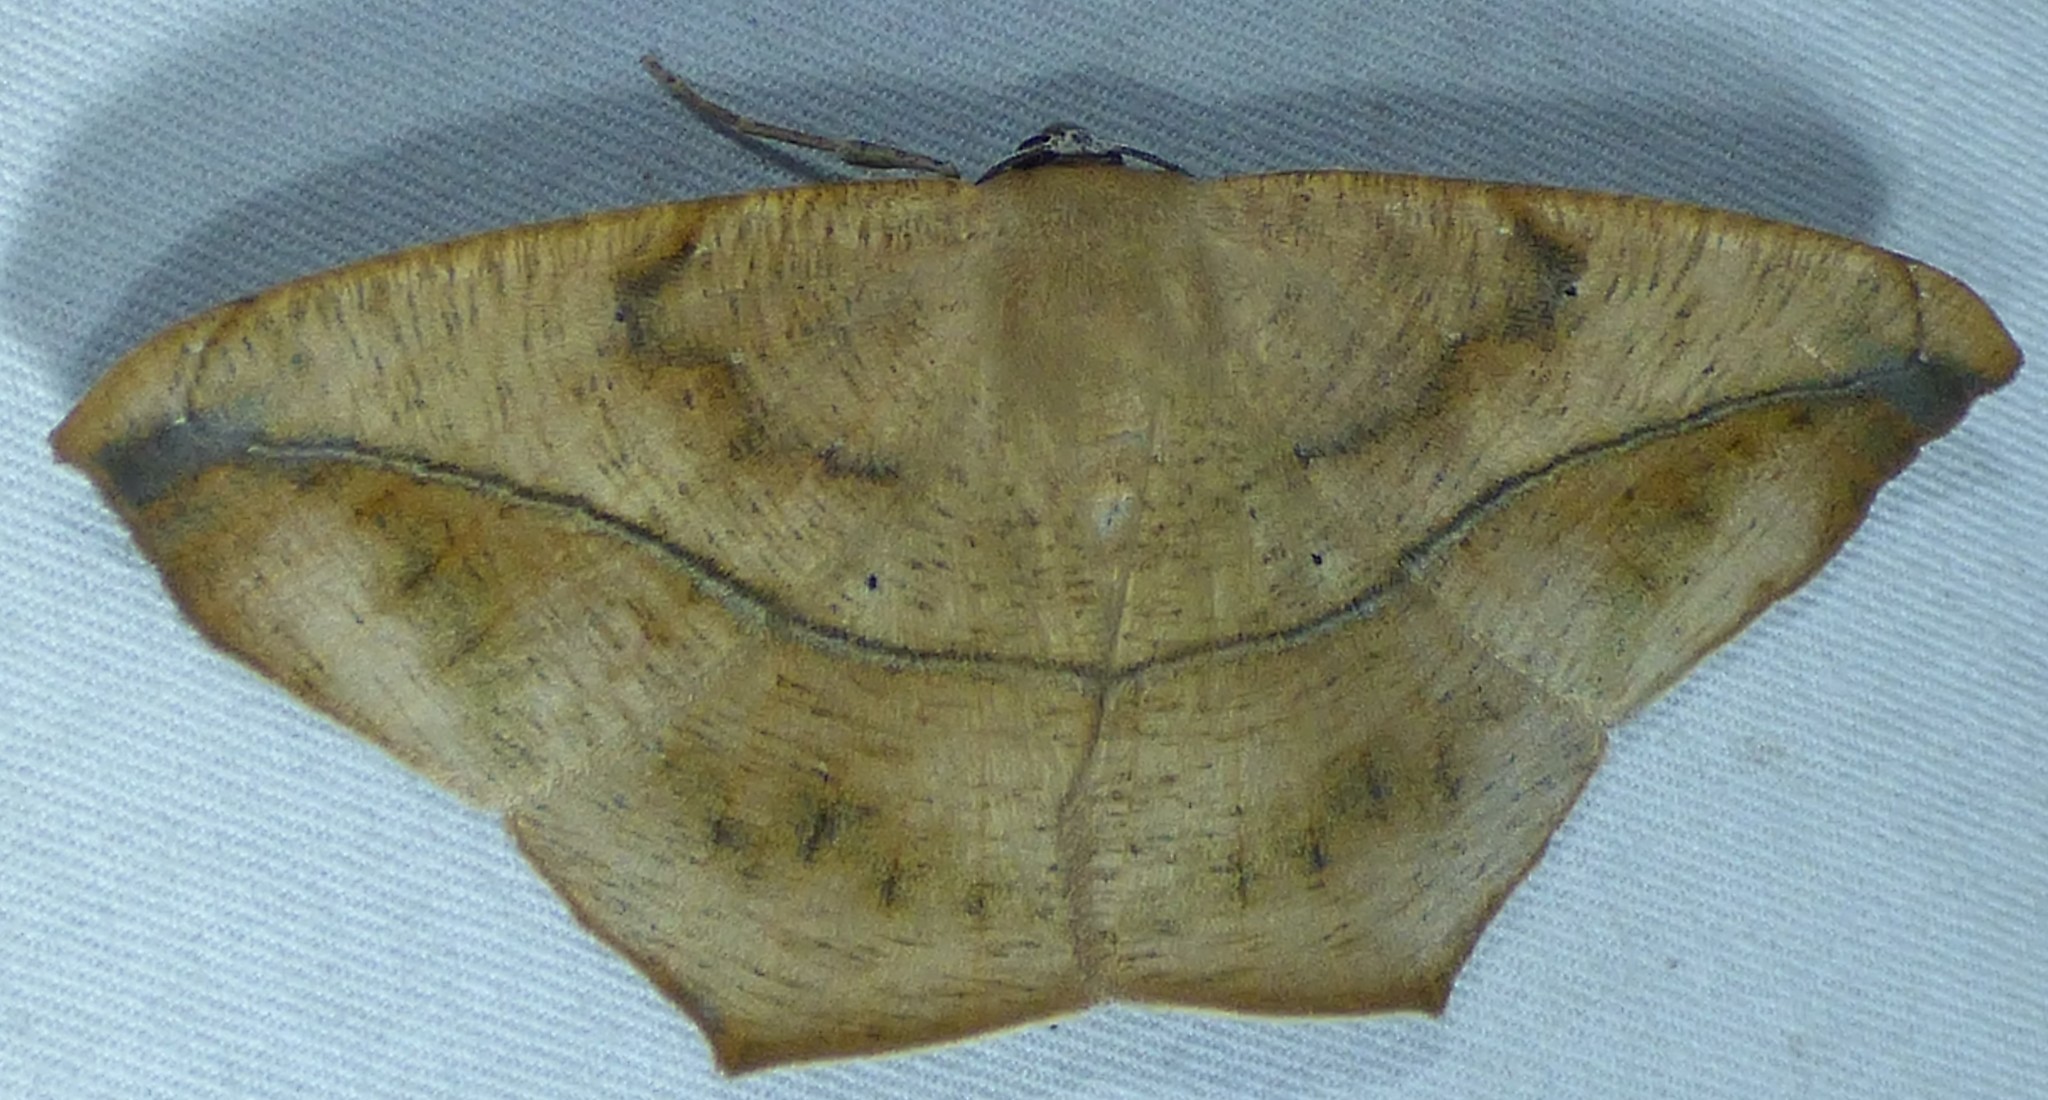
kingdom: Animalia
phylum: Arthropoda
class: Insecta
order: Lepidoptera
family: Geometridae
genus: Prochoerodes
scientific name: Prochoerodes lineola
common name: Large maple spanworm
